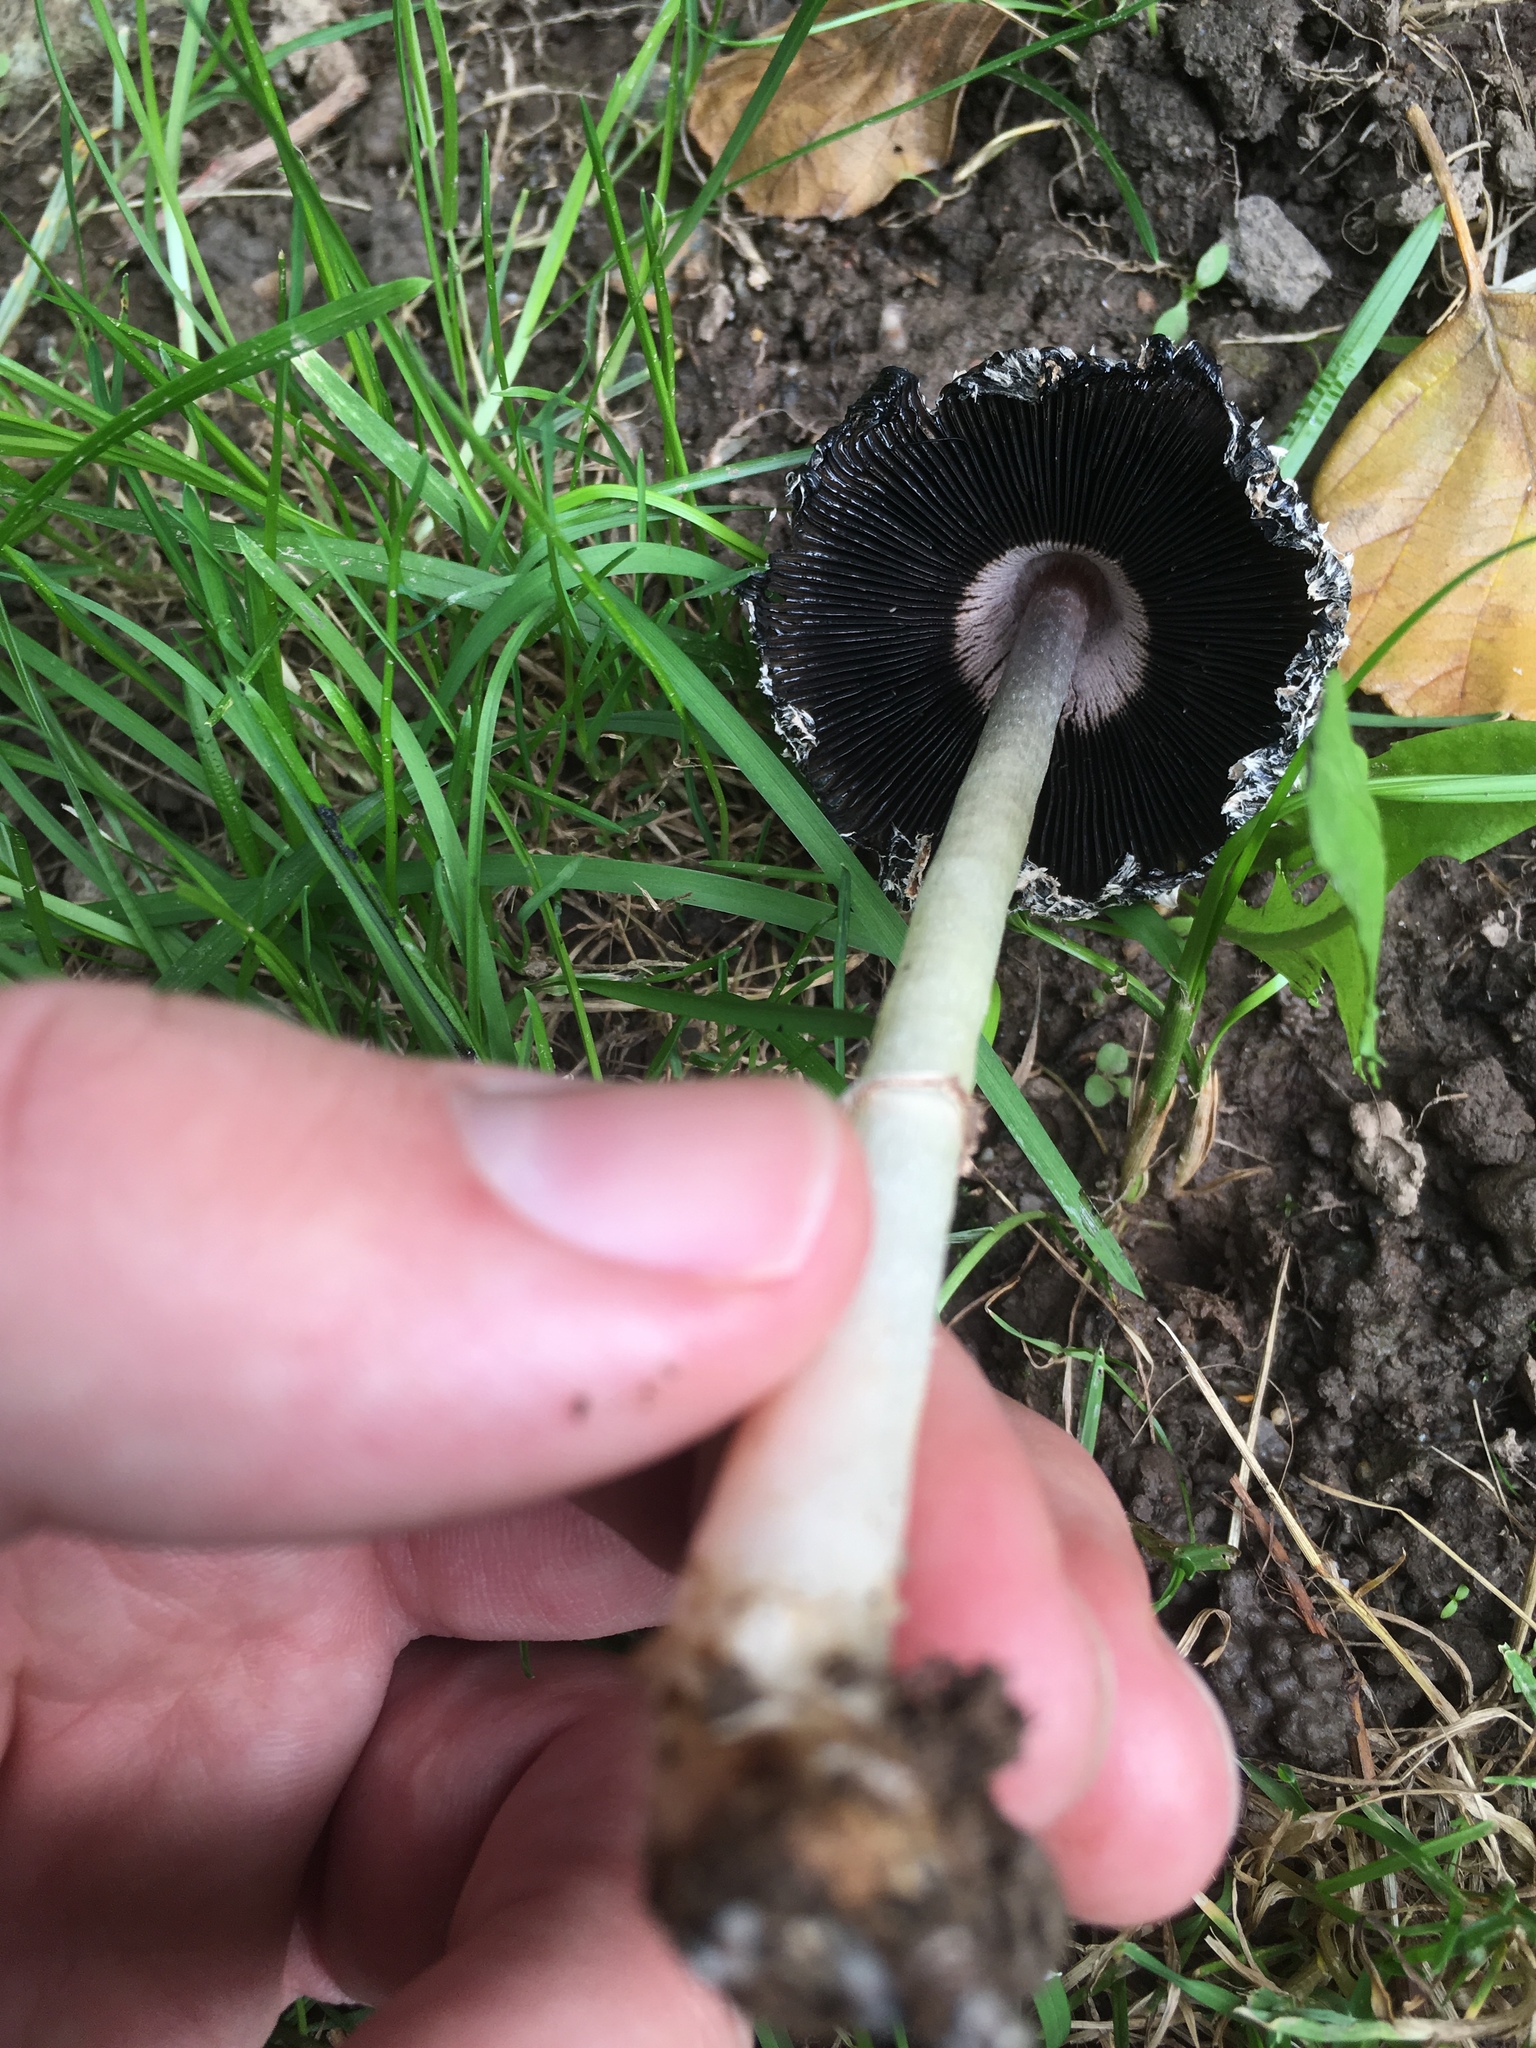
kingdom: Fungi
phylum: Basidiomycota
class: Agaricomycetes
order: Agaricales
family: Agaricaceae
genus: Coprinus
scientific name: Coprinus comatus
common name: Lawyer's wig
